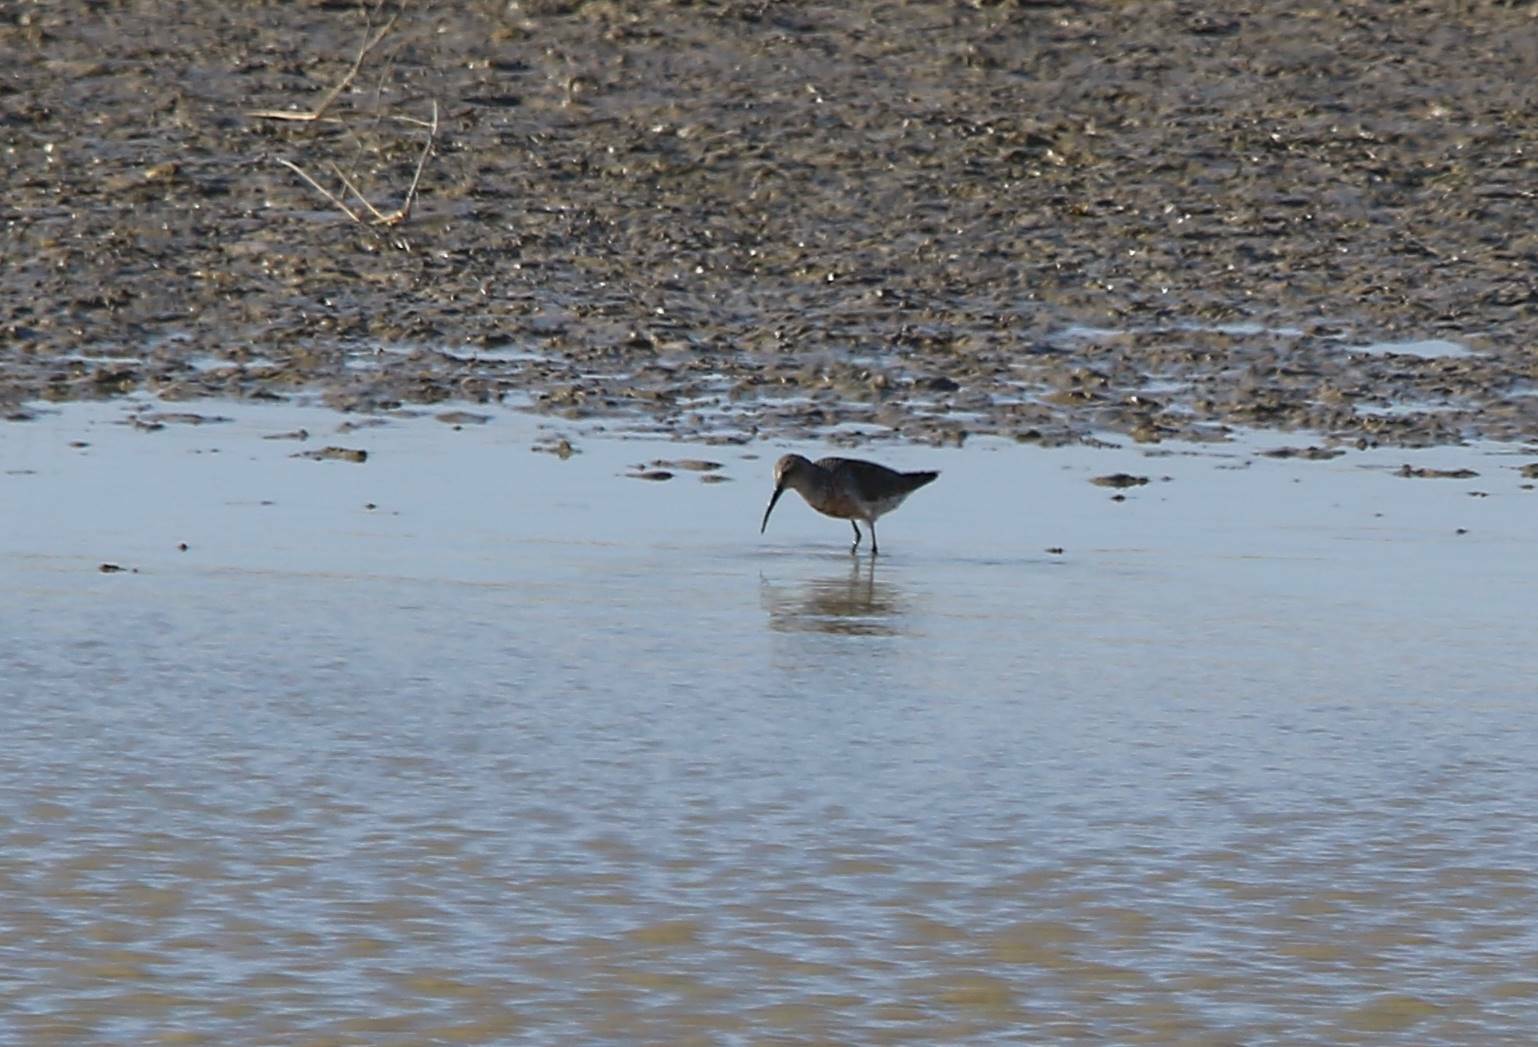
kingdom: Animalia
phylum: Chordata
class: Aves
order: Charadriiformes
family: Scolopacidae
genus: Calidris
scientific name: Calidris ferruginea
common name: Curlew sandpiper
